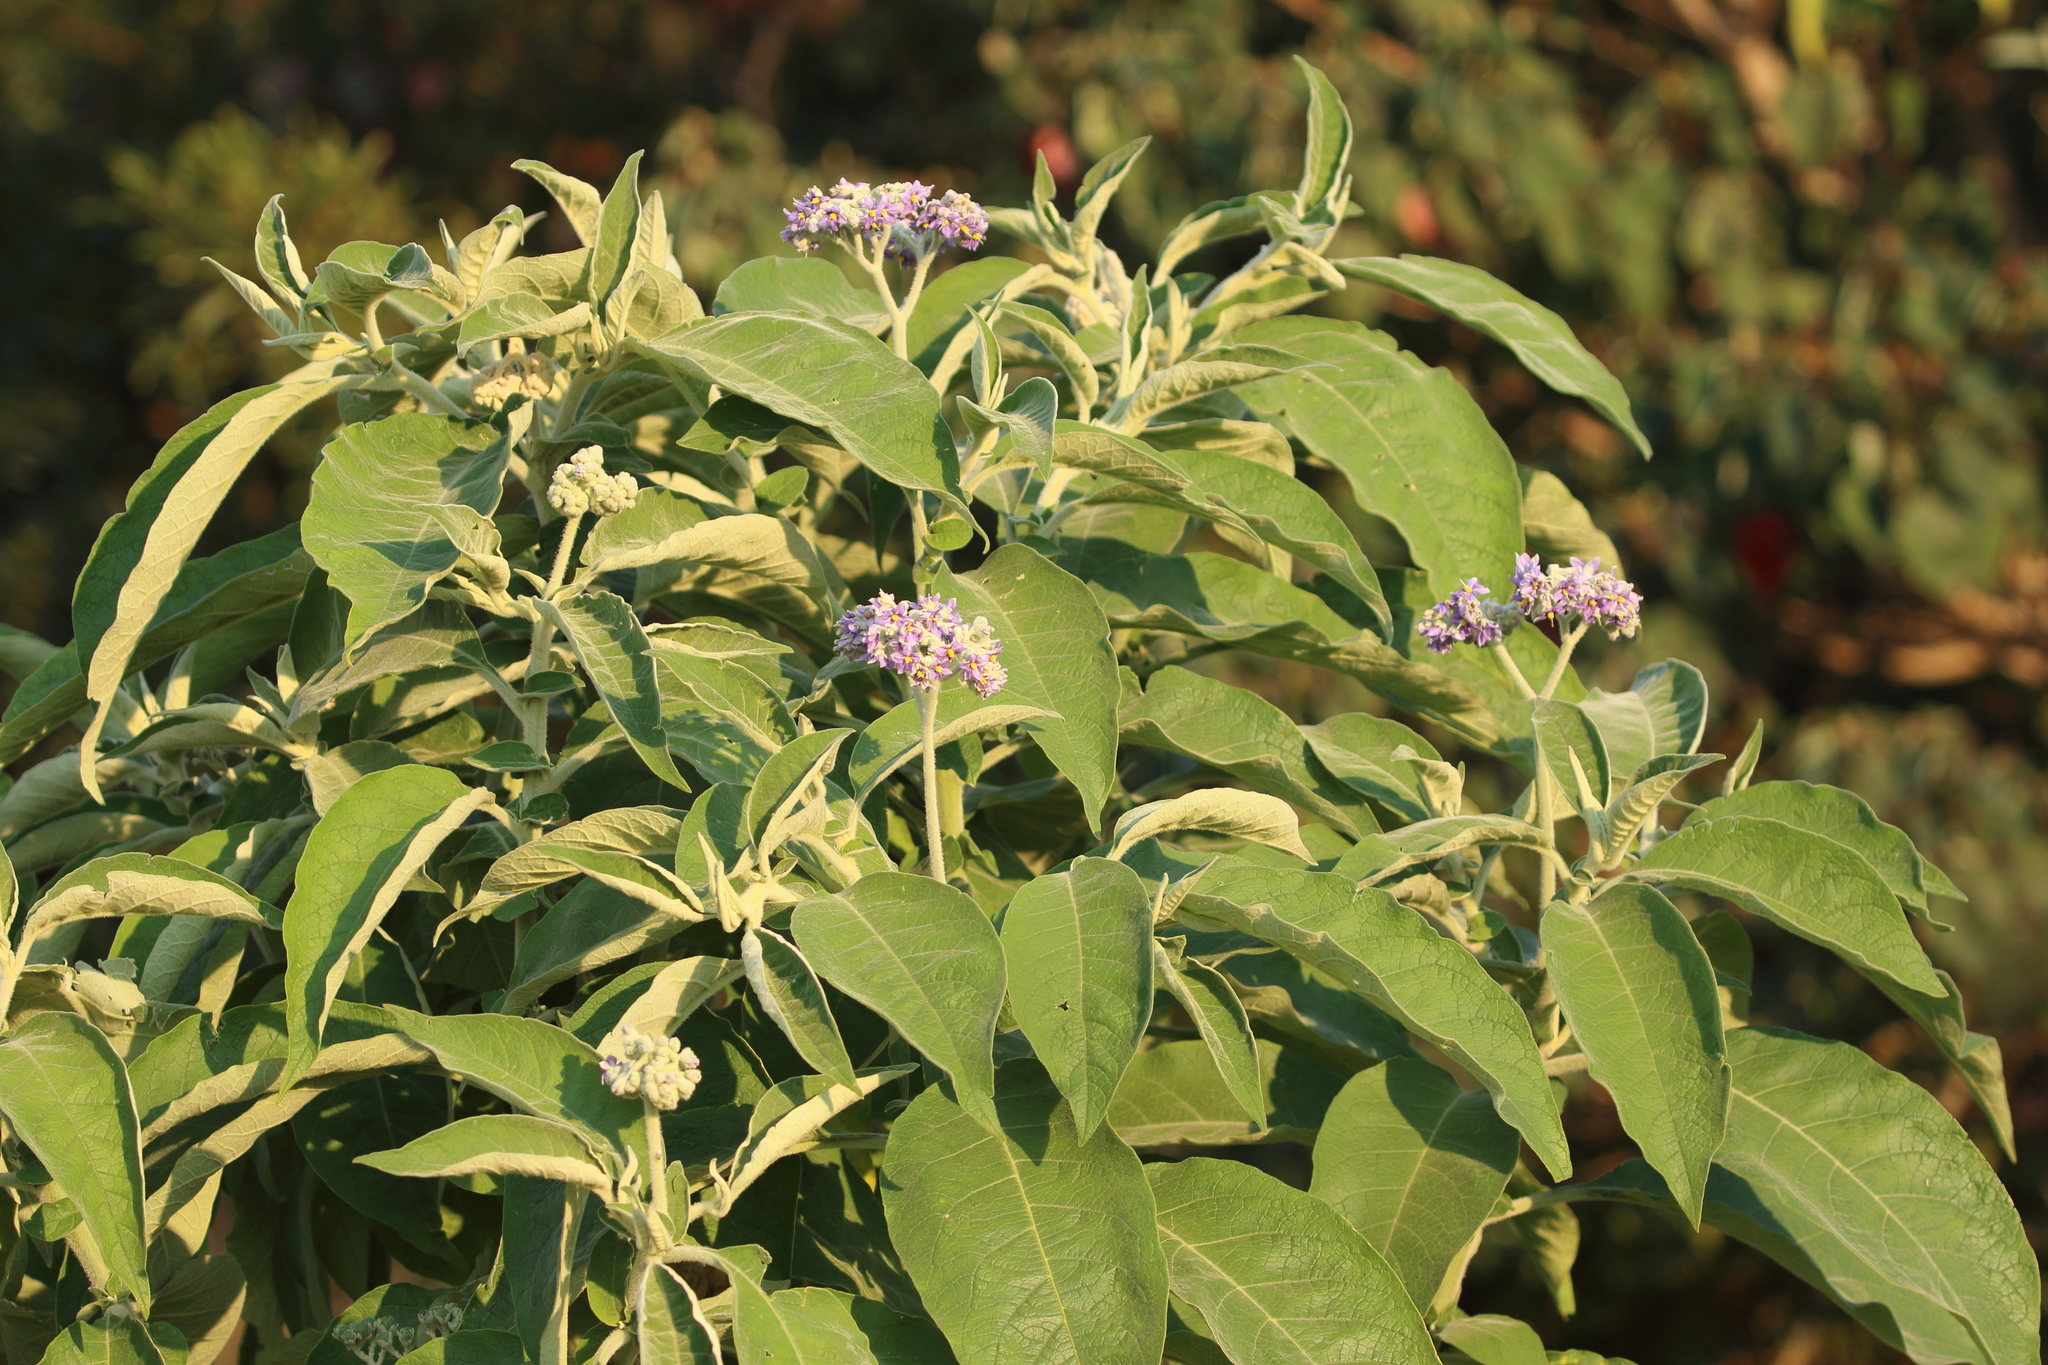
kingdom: Plantae
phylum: Tracheophyta
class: Magnoliopsida
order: Solanales
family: Solanaceae
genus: Solanum
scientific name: Solanum mauritianum
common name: Earleaf nightshade
